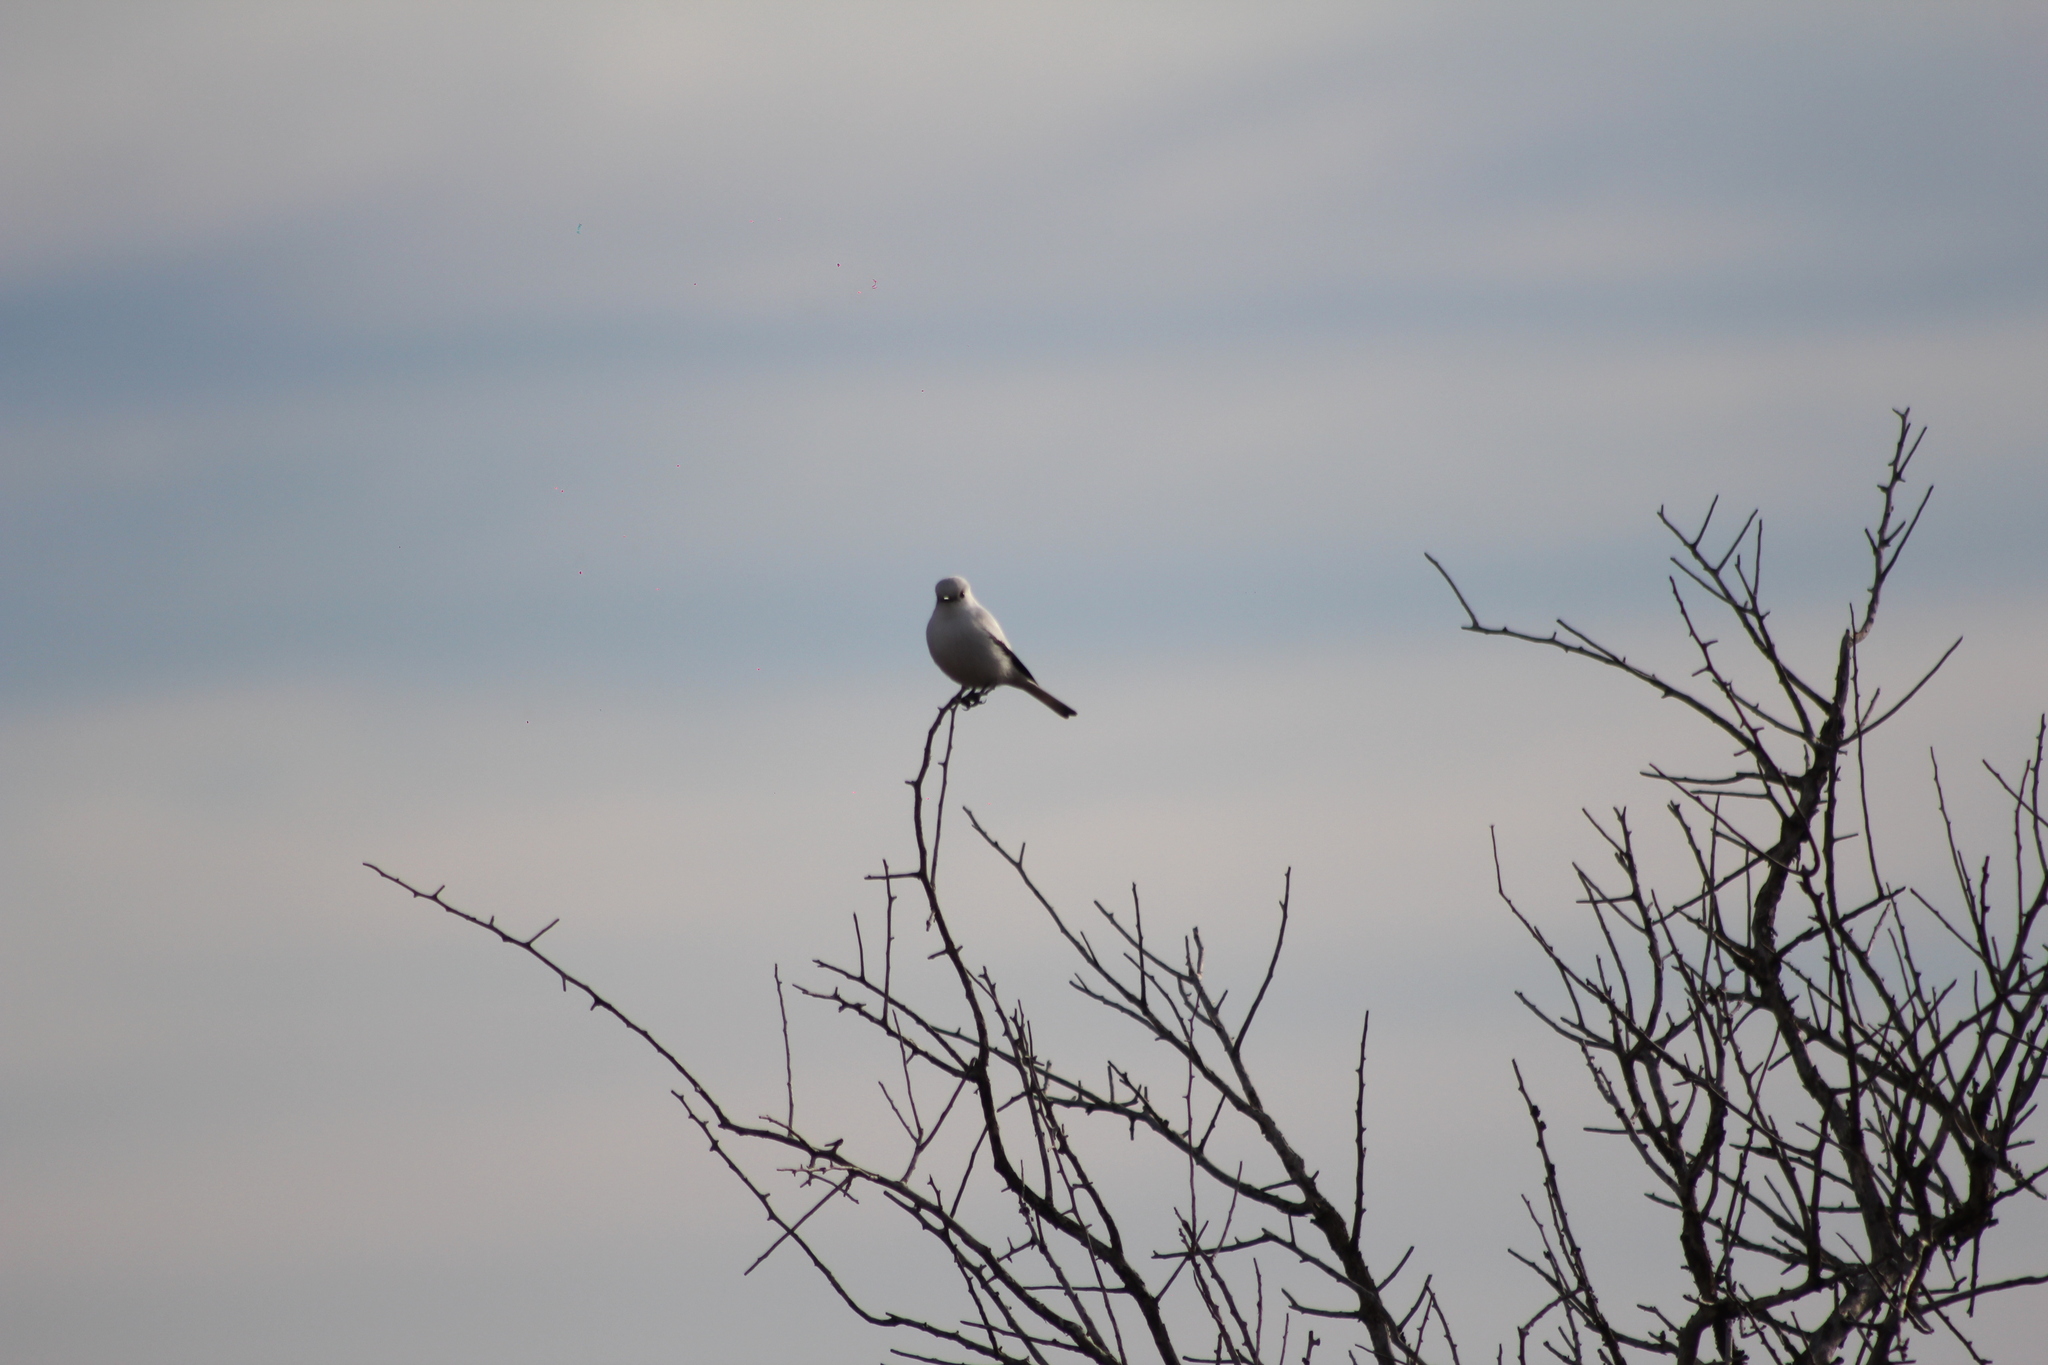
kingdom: Animalia
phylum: Chordata
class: Aves
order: Passeriformes
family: Tyrannidae
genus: Xolmis
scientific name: Xolmis irupero
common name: White monjita
